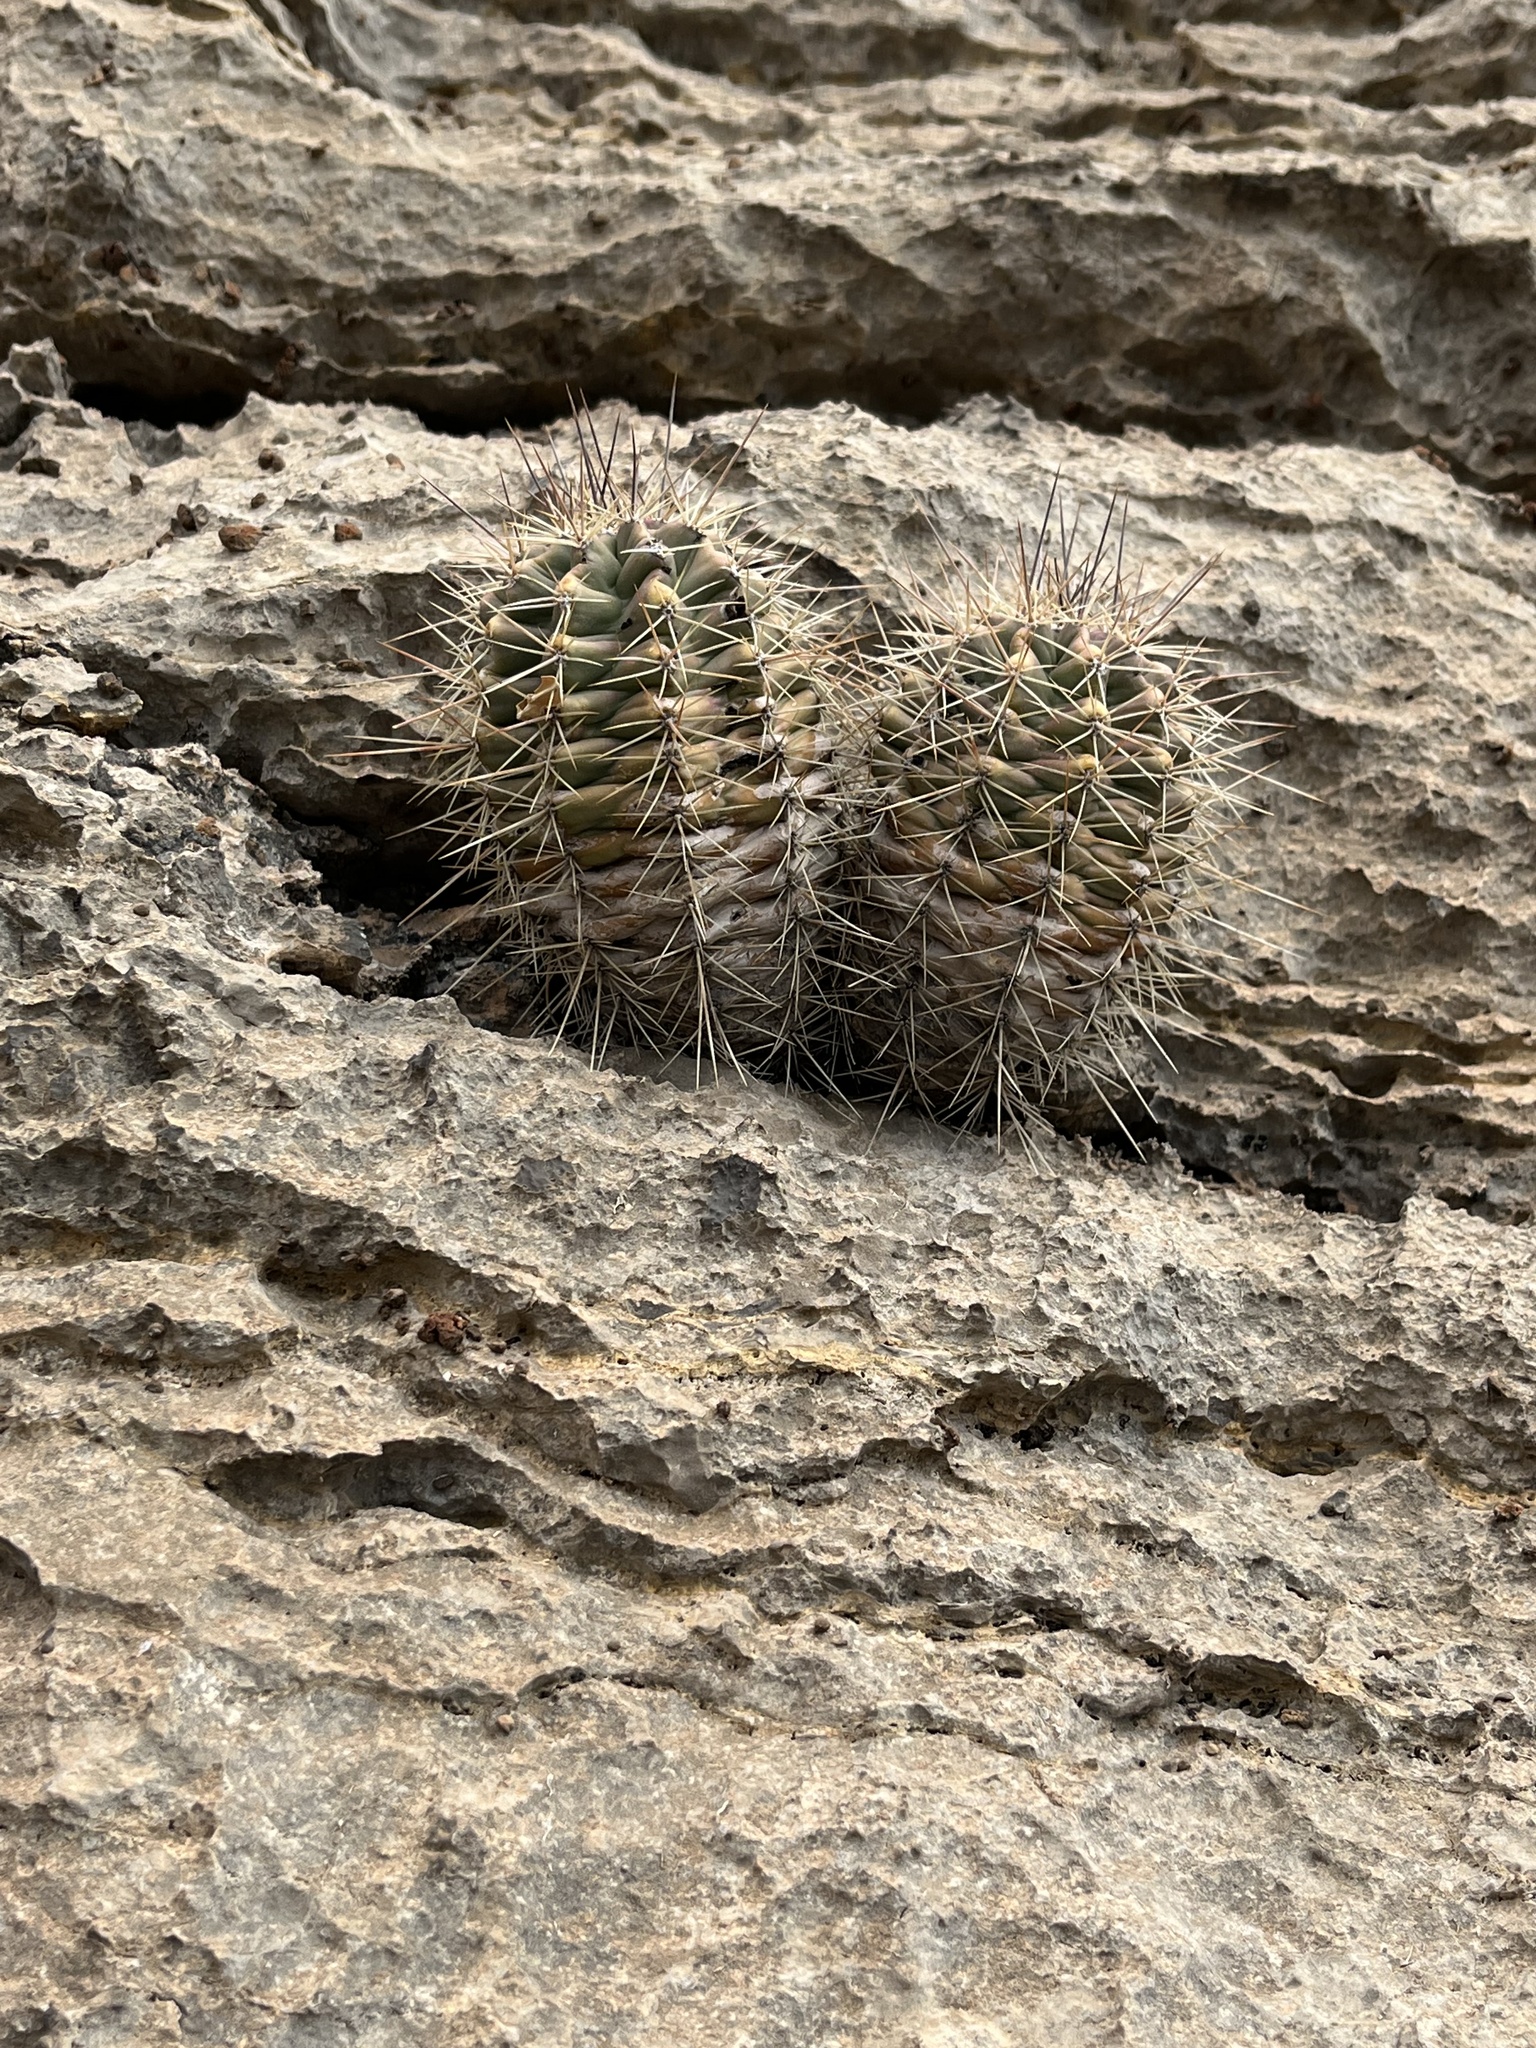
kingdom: Plantae
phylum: Tracheophyta
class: Magnoliopsida
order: Caryophyllales
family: Cactaceae
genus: Echinocereus
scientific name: Echinocereus coccineus
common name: Scarlet hedgehog cactus
